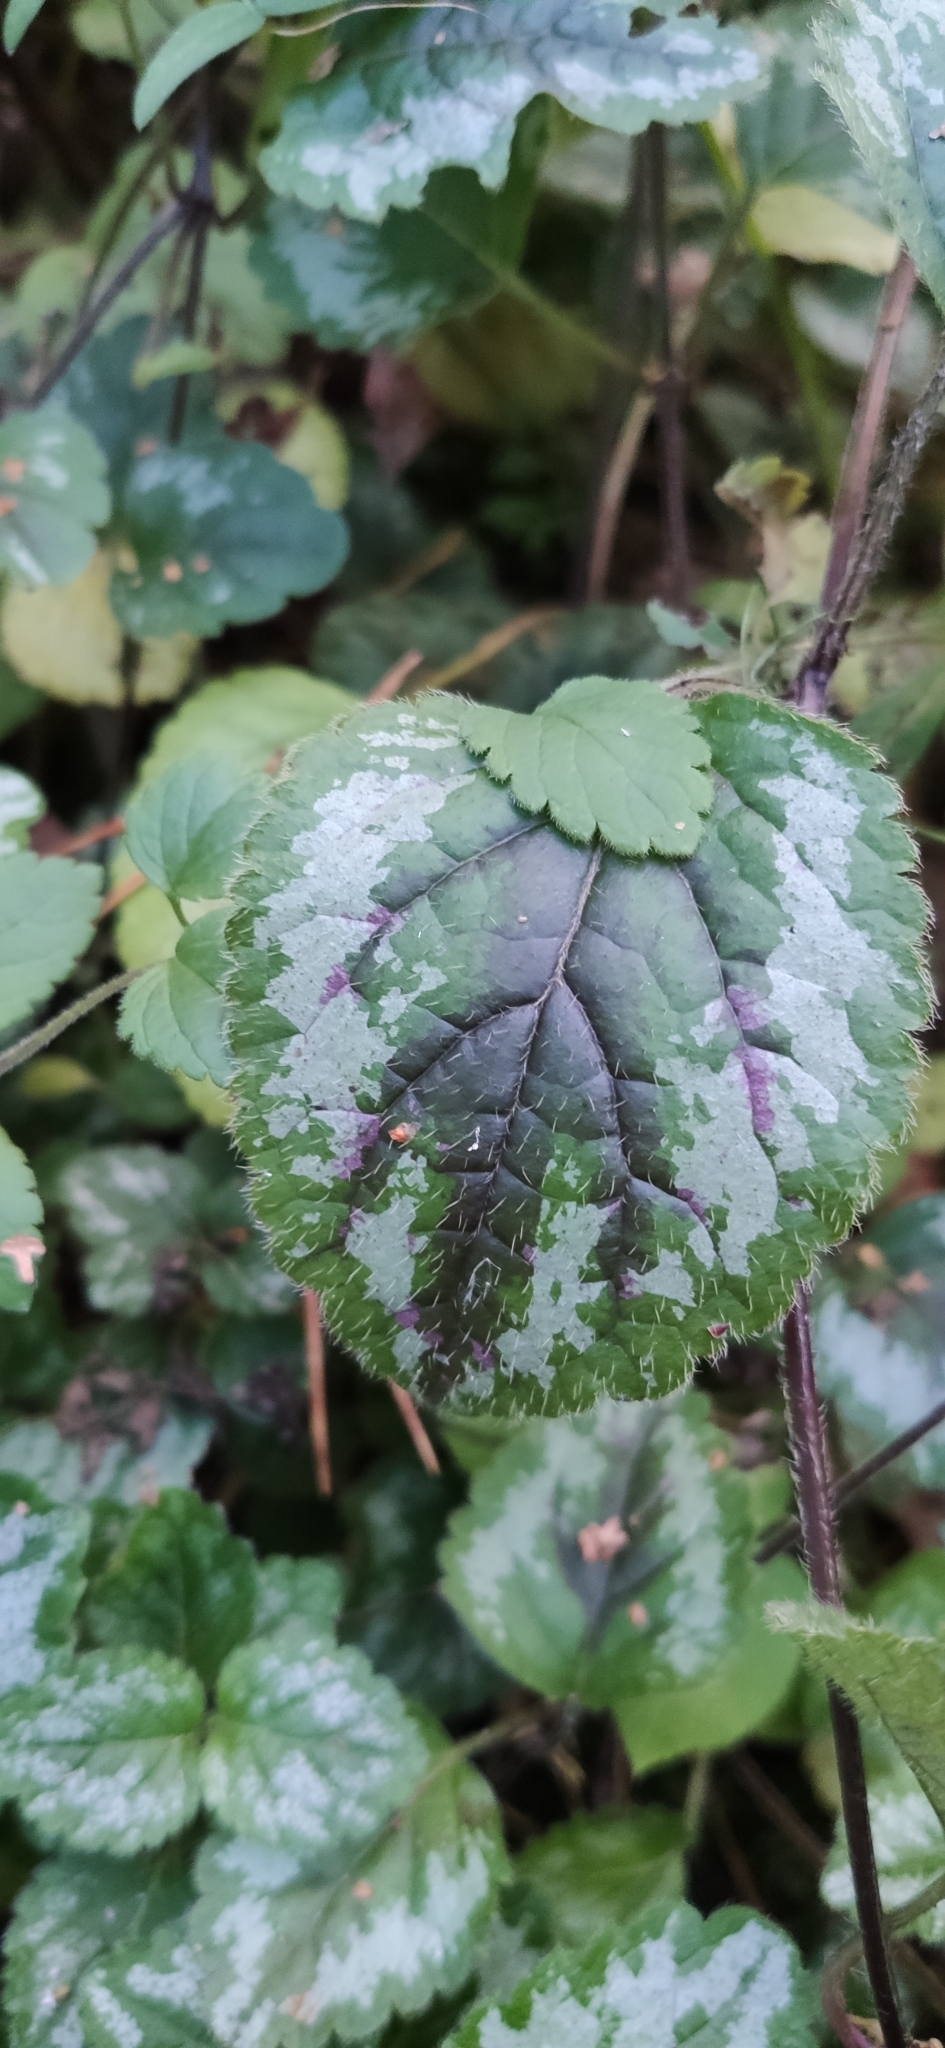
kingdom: Plantae
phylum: Tracheophyta
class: Magnoliopsida
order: Lamiales
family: Lamiaceae
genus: Lamium
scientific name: Lamium galeobdolon
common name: Yellow archangel
